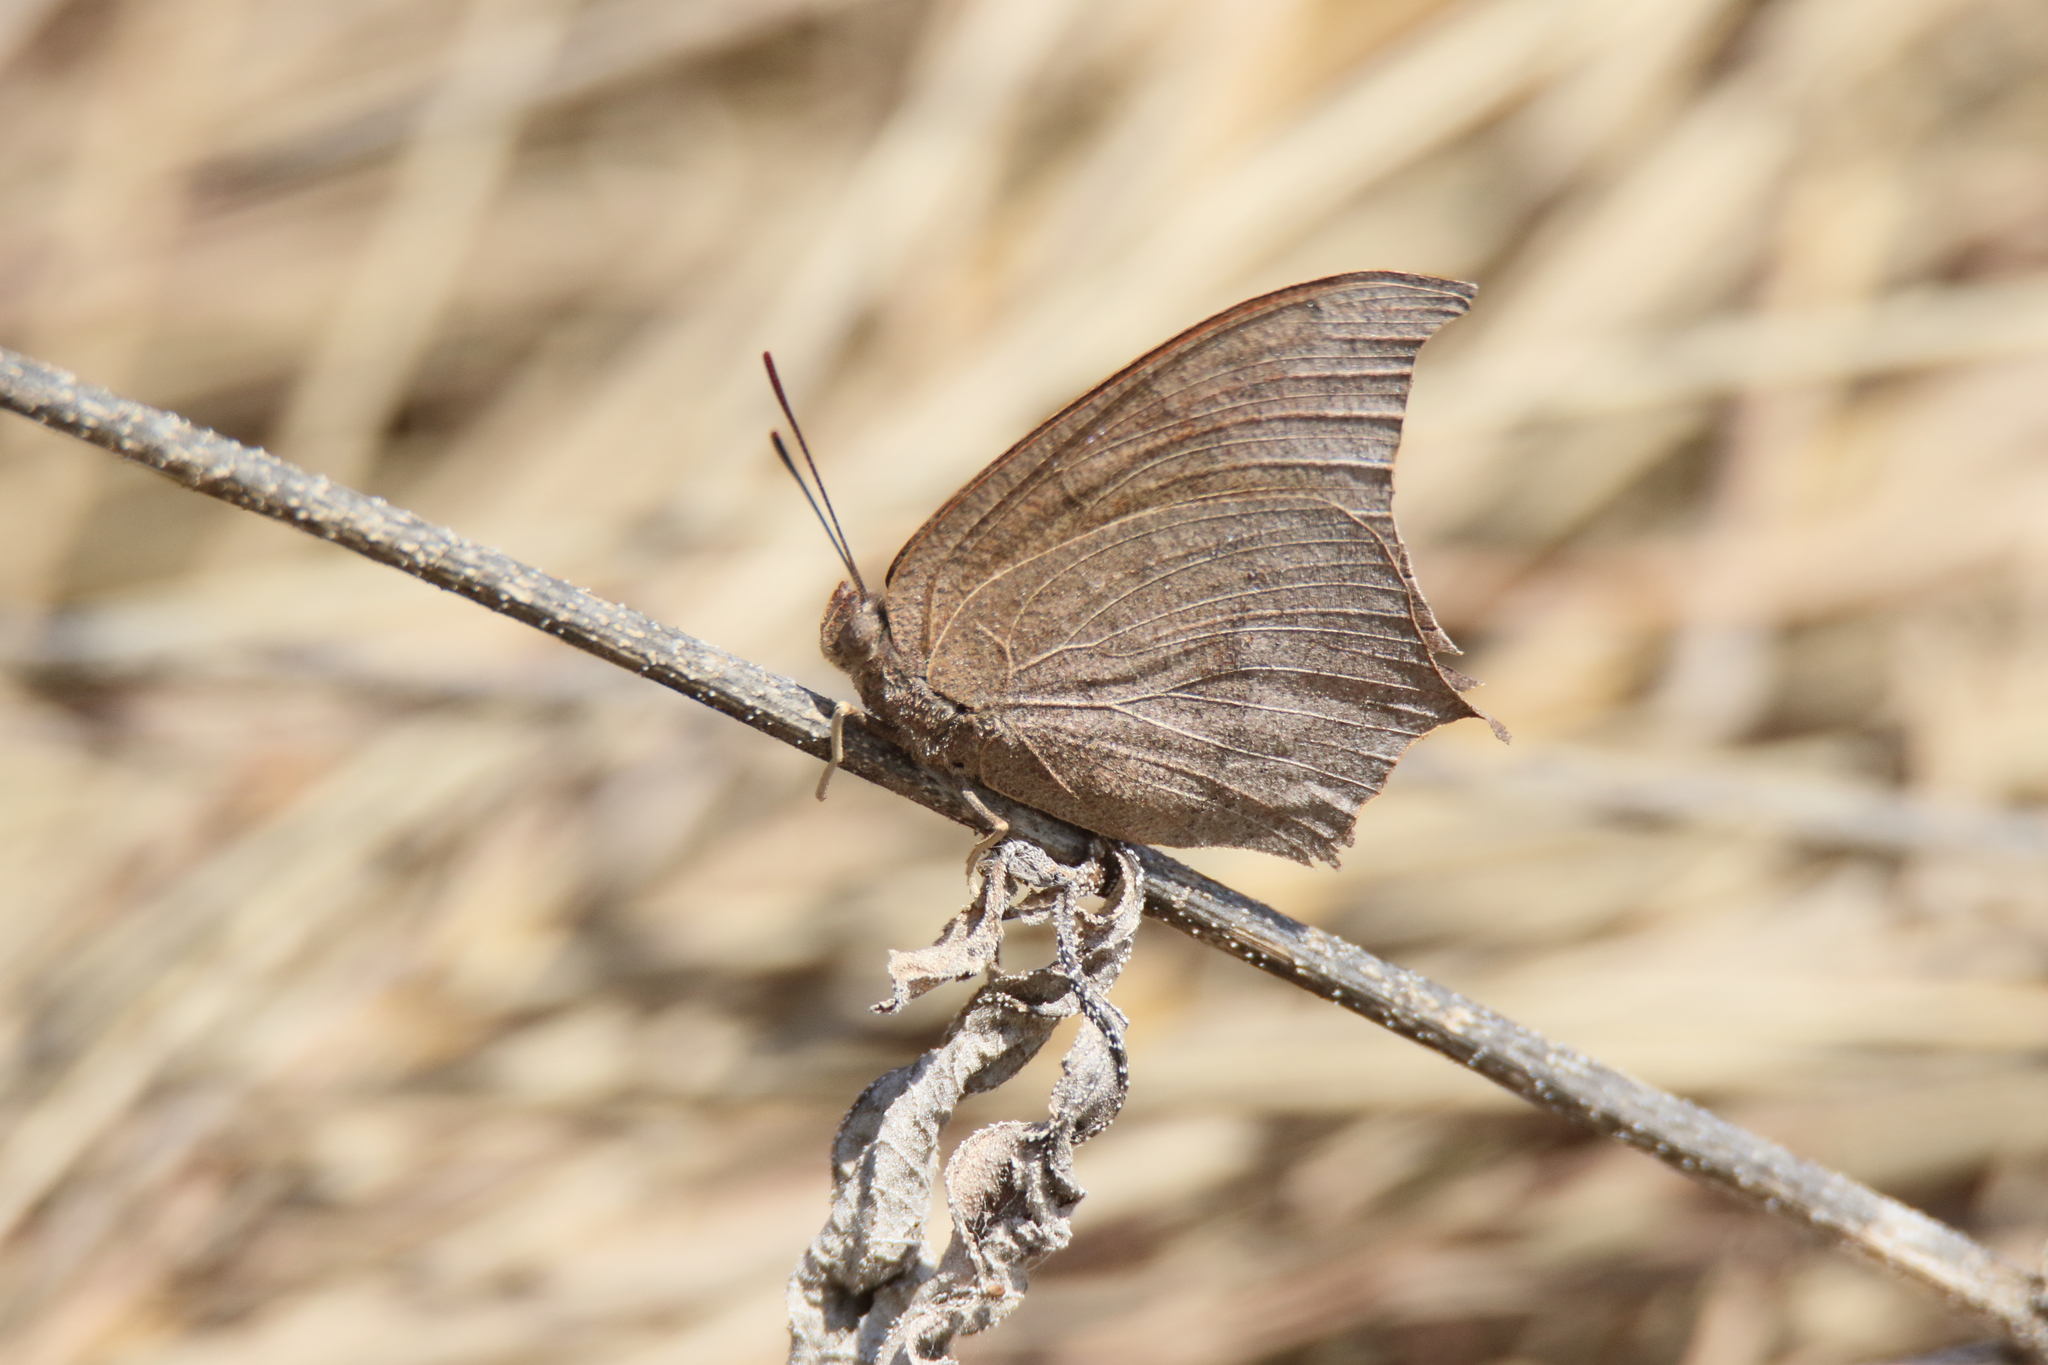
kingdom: Animalia
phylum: Arthropoda
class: Insecta
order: Lepidoptera
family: Nymphalidae
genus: Anaea
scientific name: Anaea andria
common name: Goatweed leafwing
